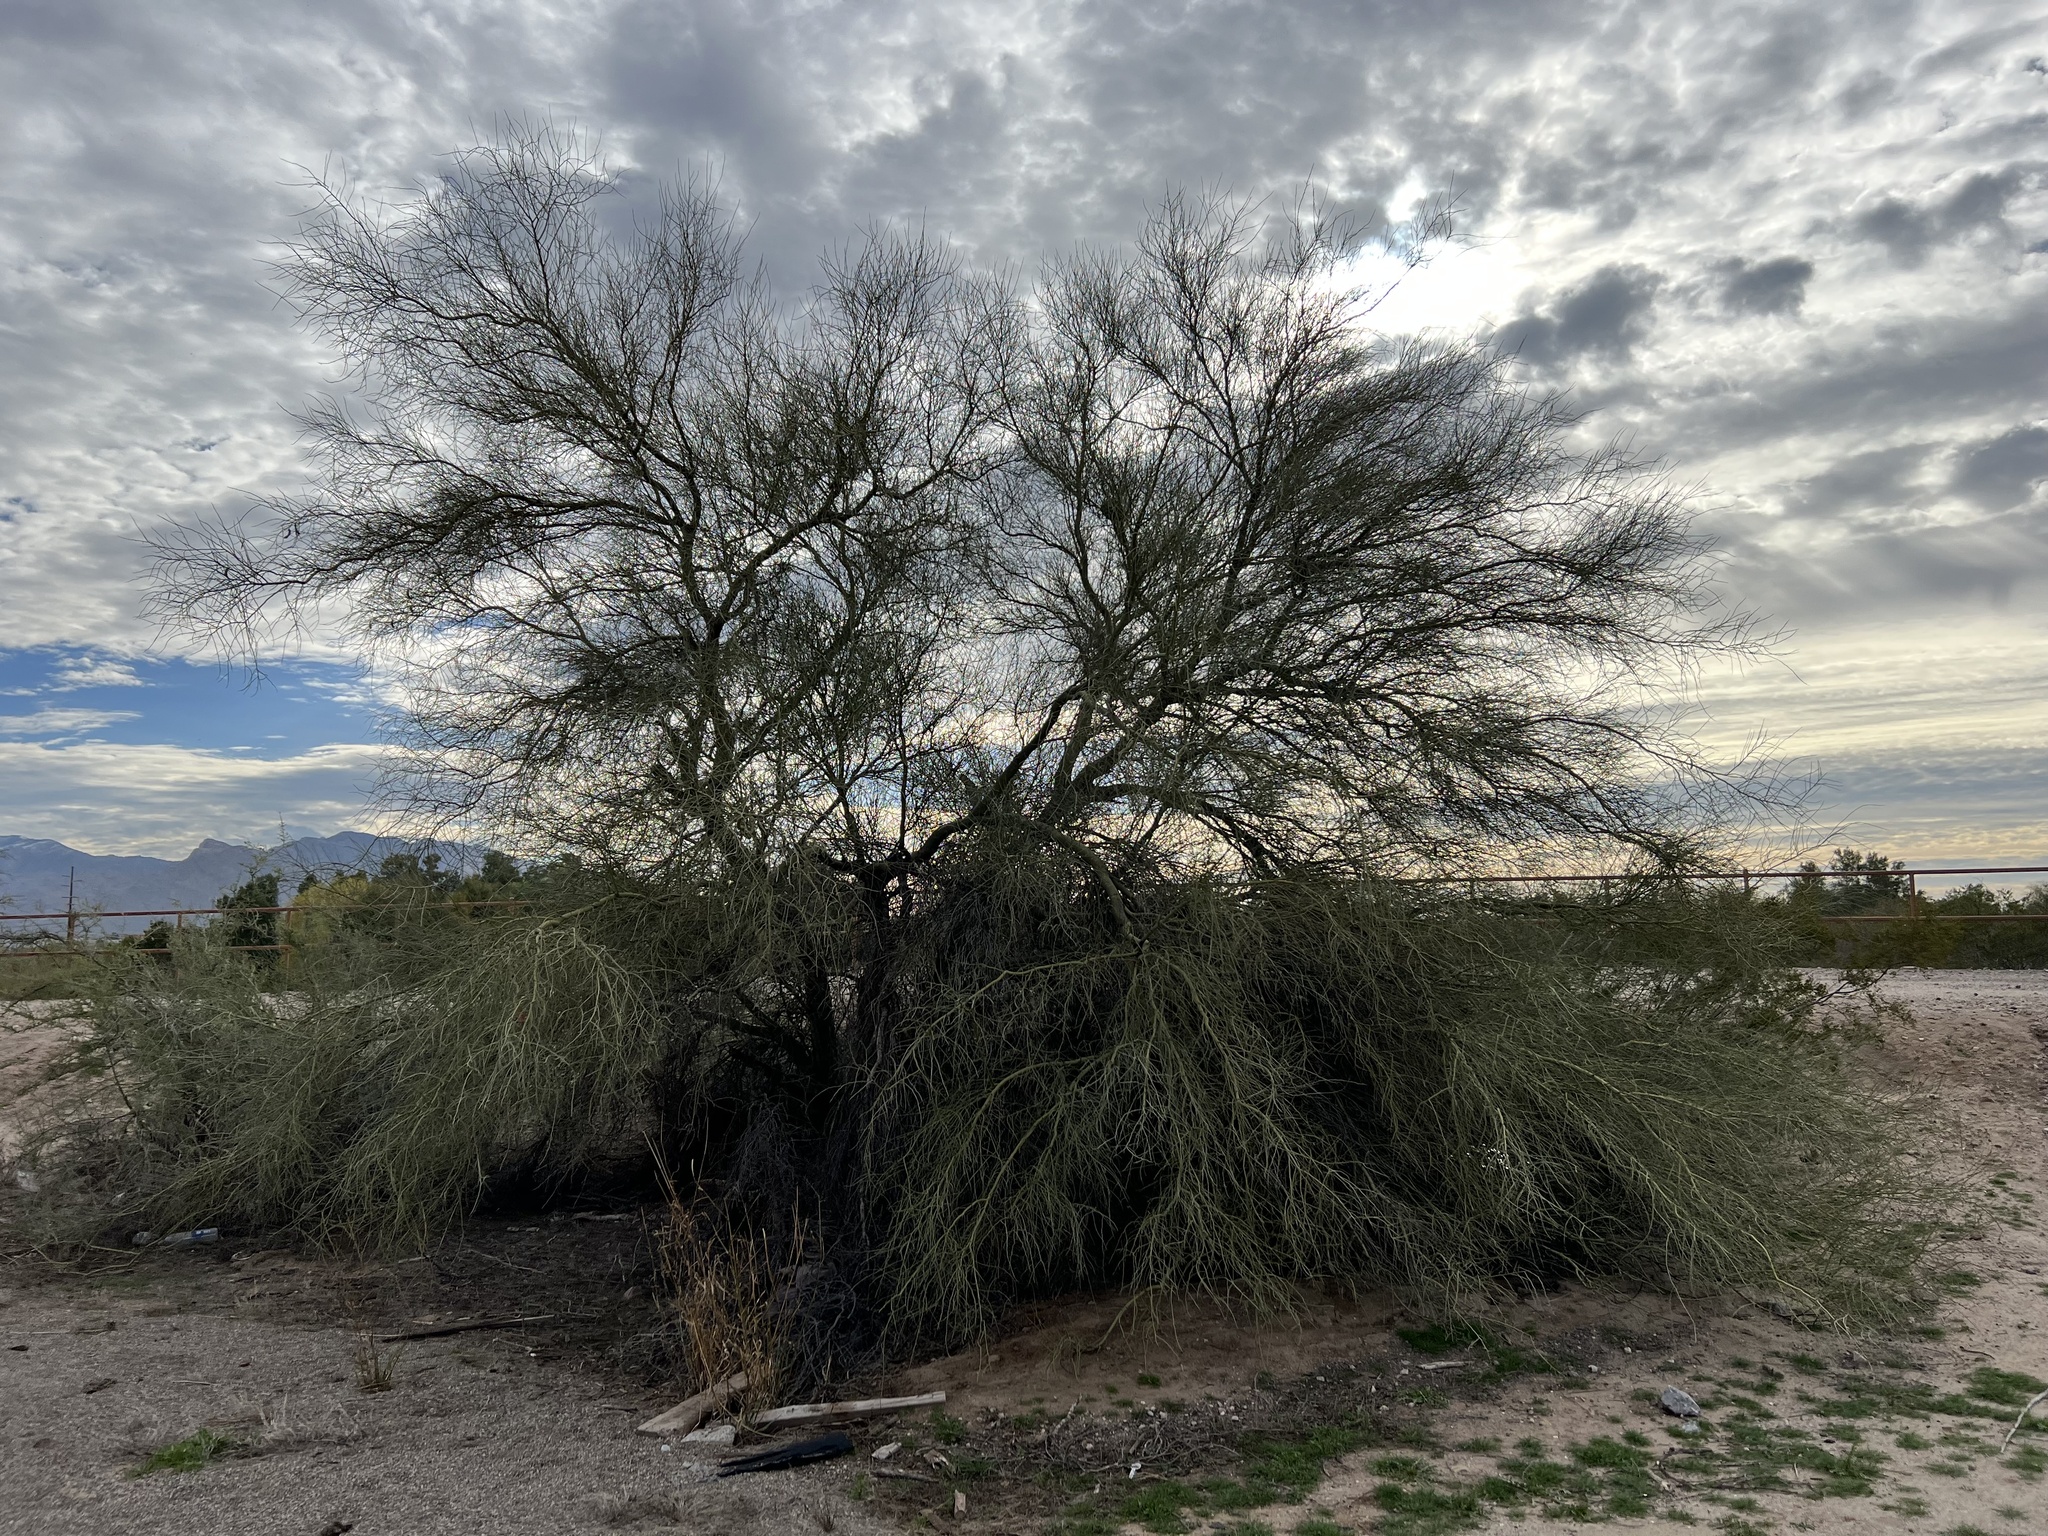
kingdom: Plantae
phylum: Tracheophyta
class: Magnoliopsida
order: Fabales
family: Fabaceae
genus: Parkinsonia
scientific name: Parkinsonia florida
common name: Blue paloverde
